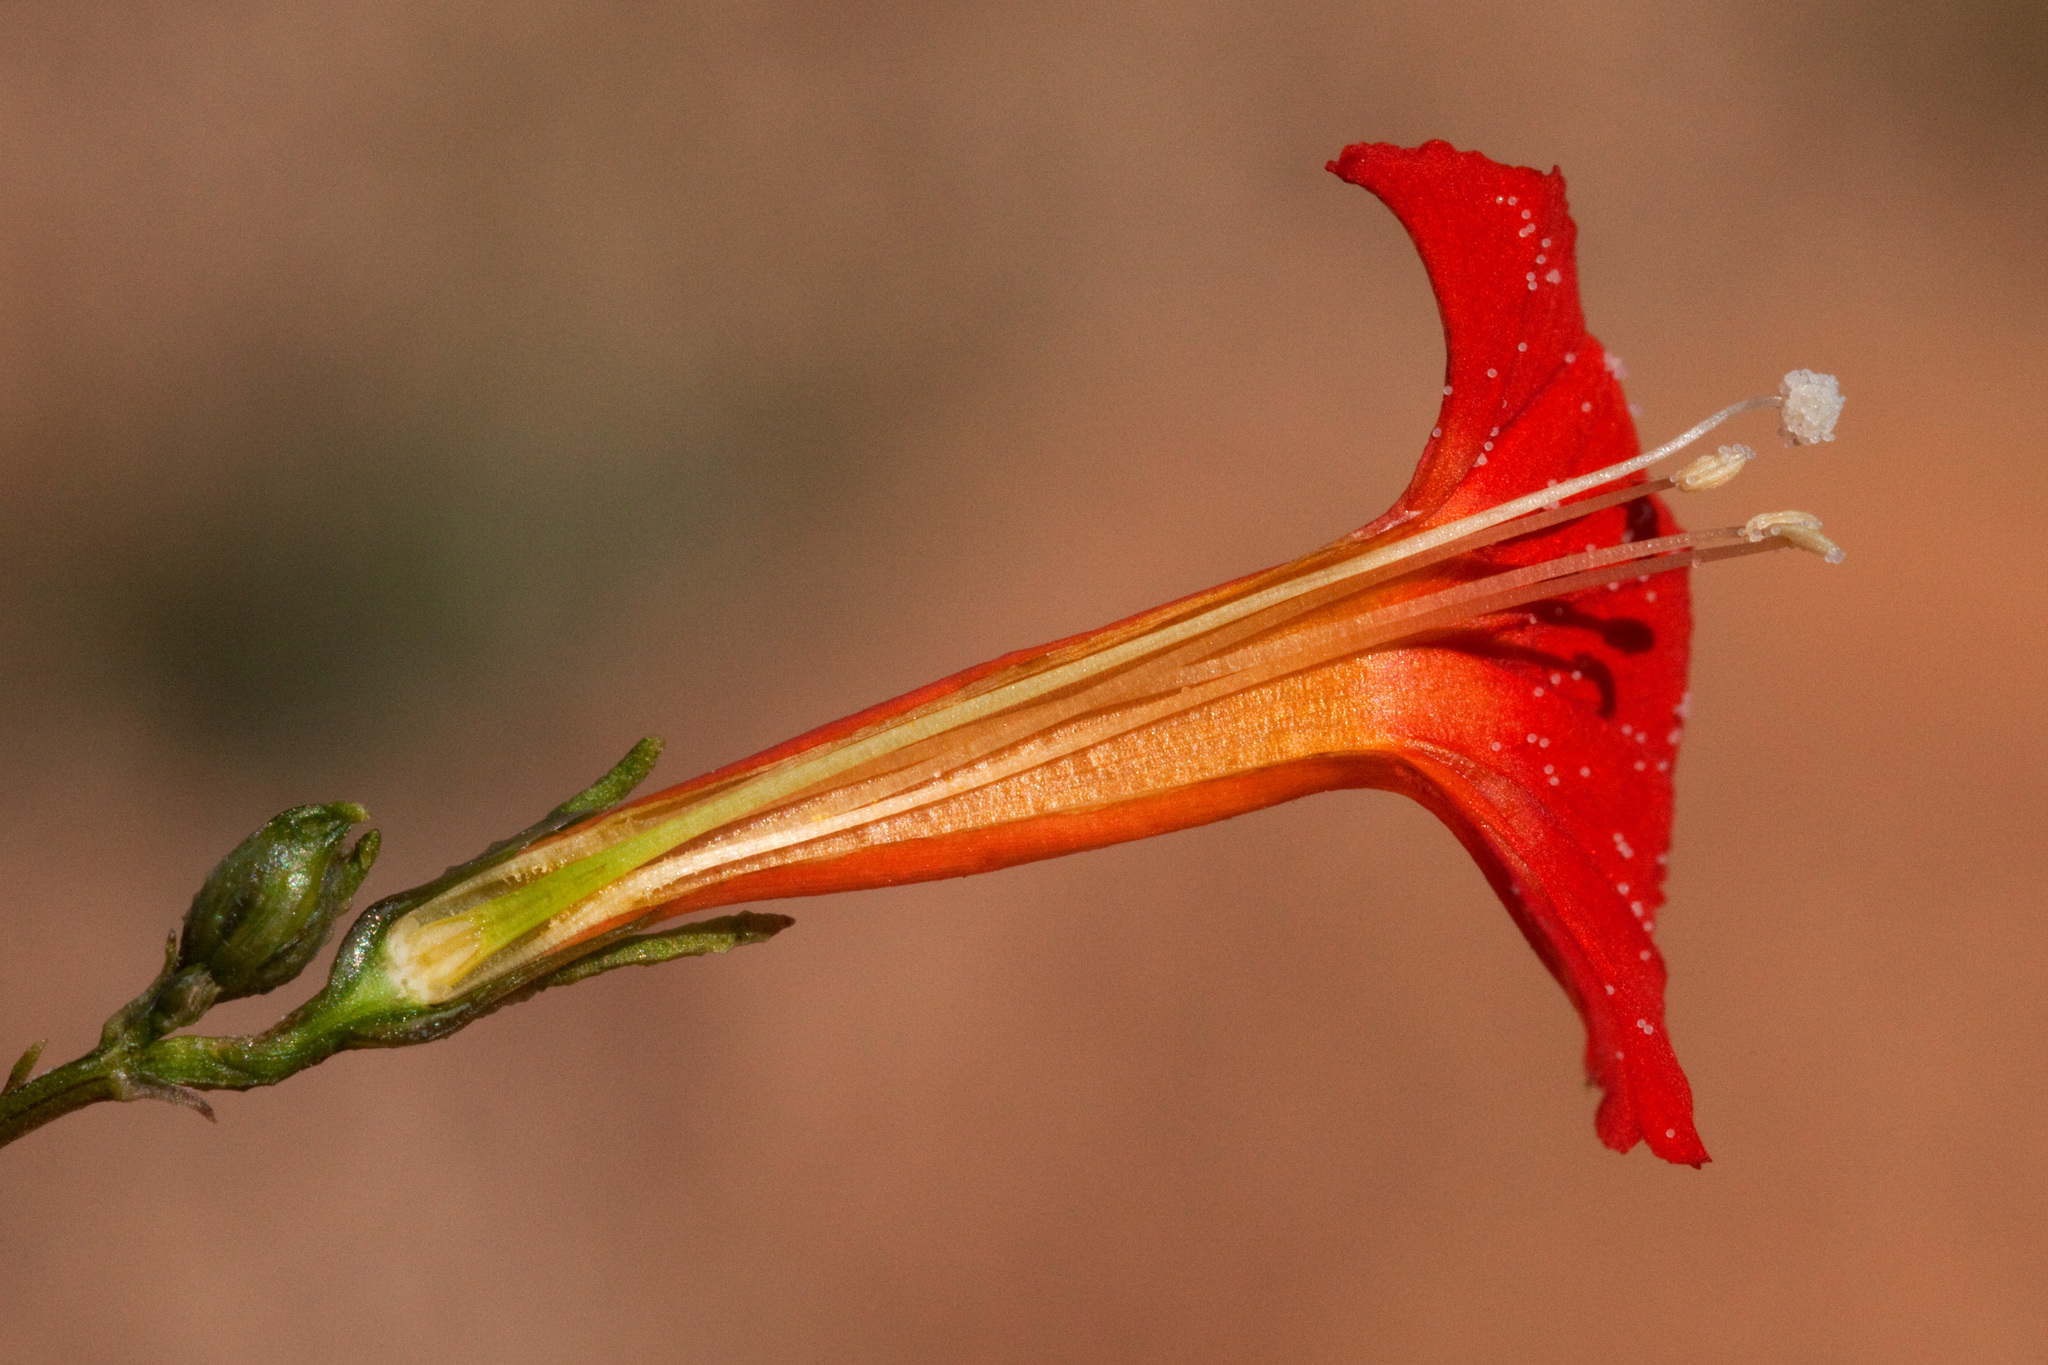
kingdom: Plantae
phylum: Tracheophyta
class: Magnoliopsida
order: Solanales
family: Convolvulaceae
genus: Ipomoea
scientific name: Ipomoea cristulata
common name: Trans-pecos morning-glory
